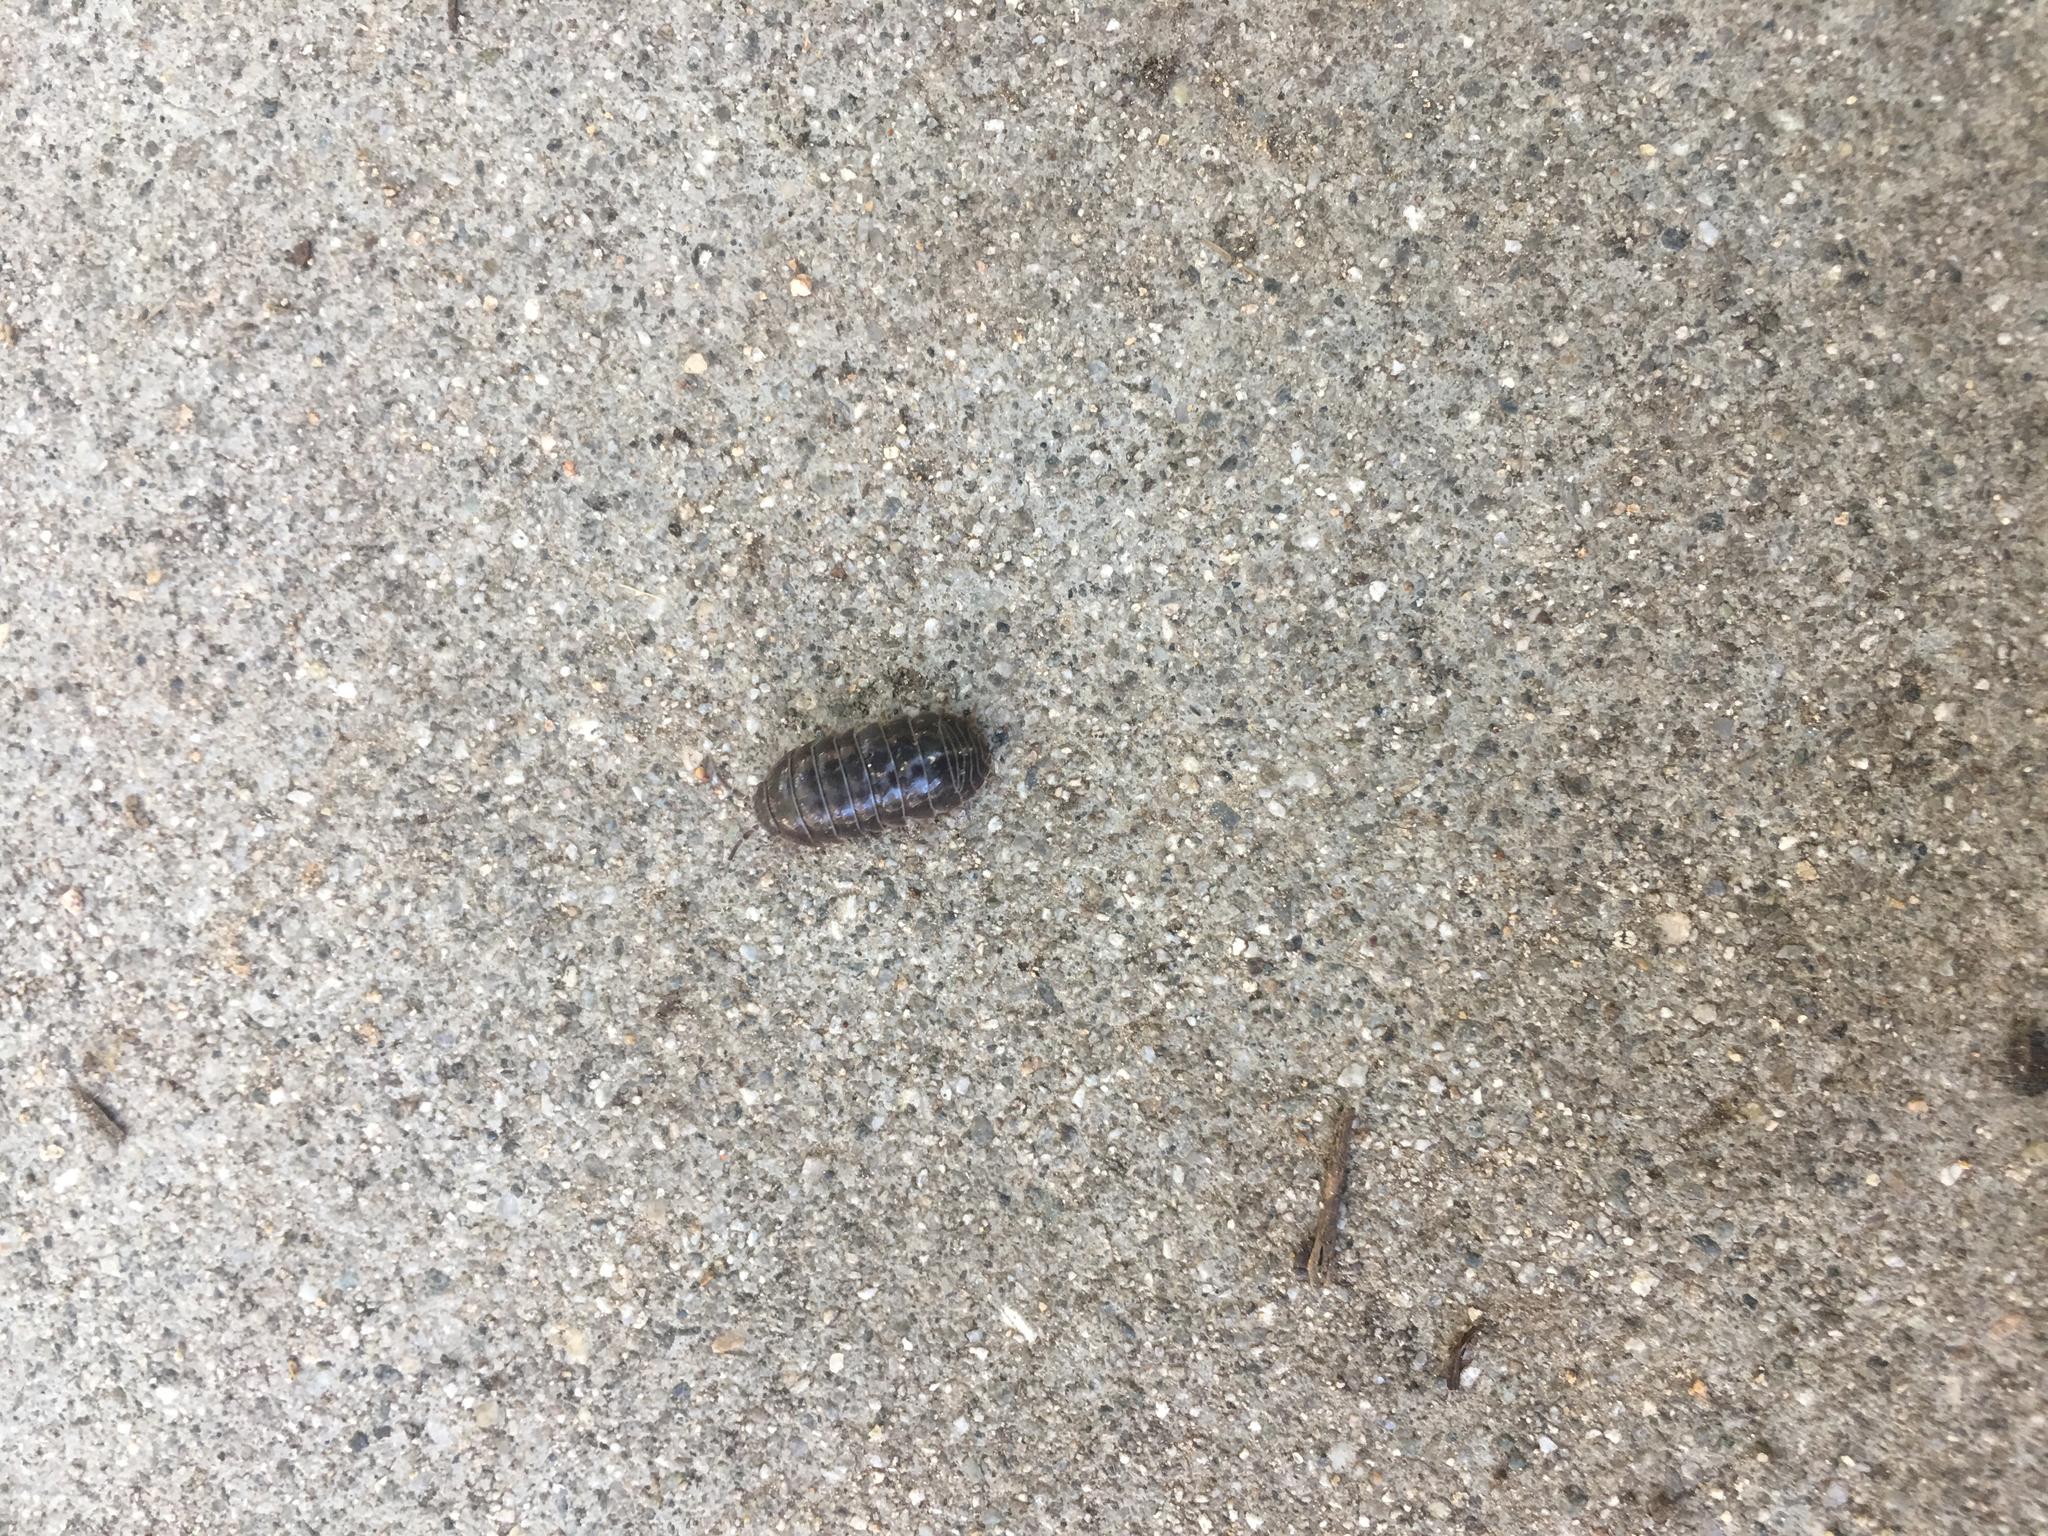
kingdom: Animalia
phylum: Arthropoda
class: Malacostraca
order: Isopoda
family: Armadillidiidae
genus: Armadillidium
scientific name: Armadillidium vulgare
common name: Common pill woodlouse
